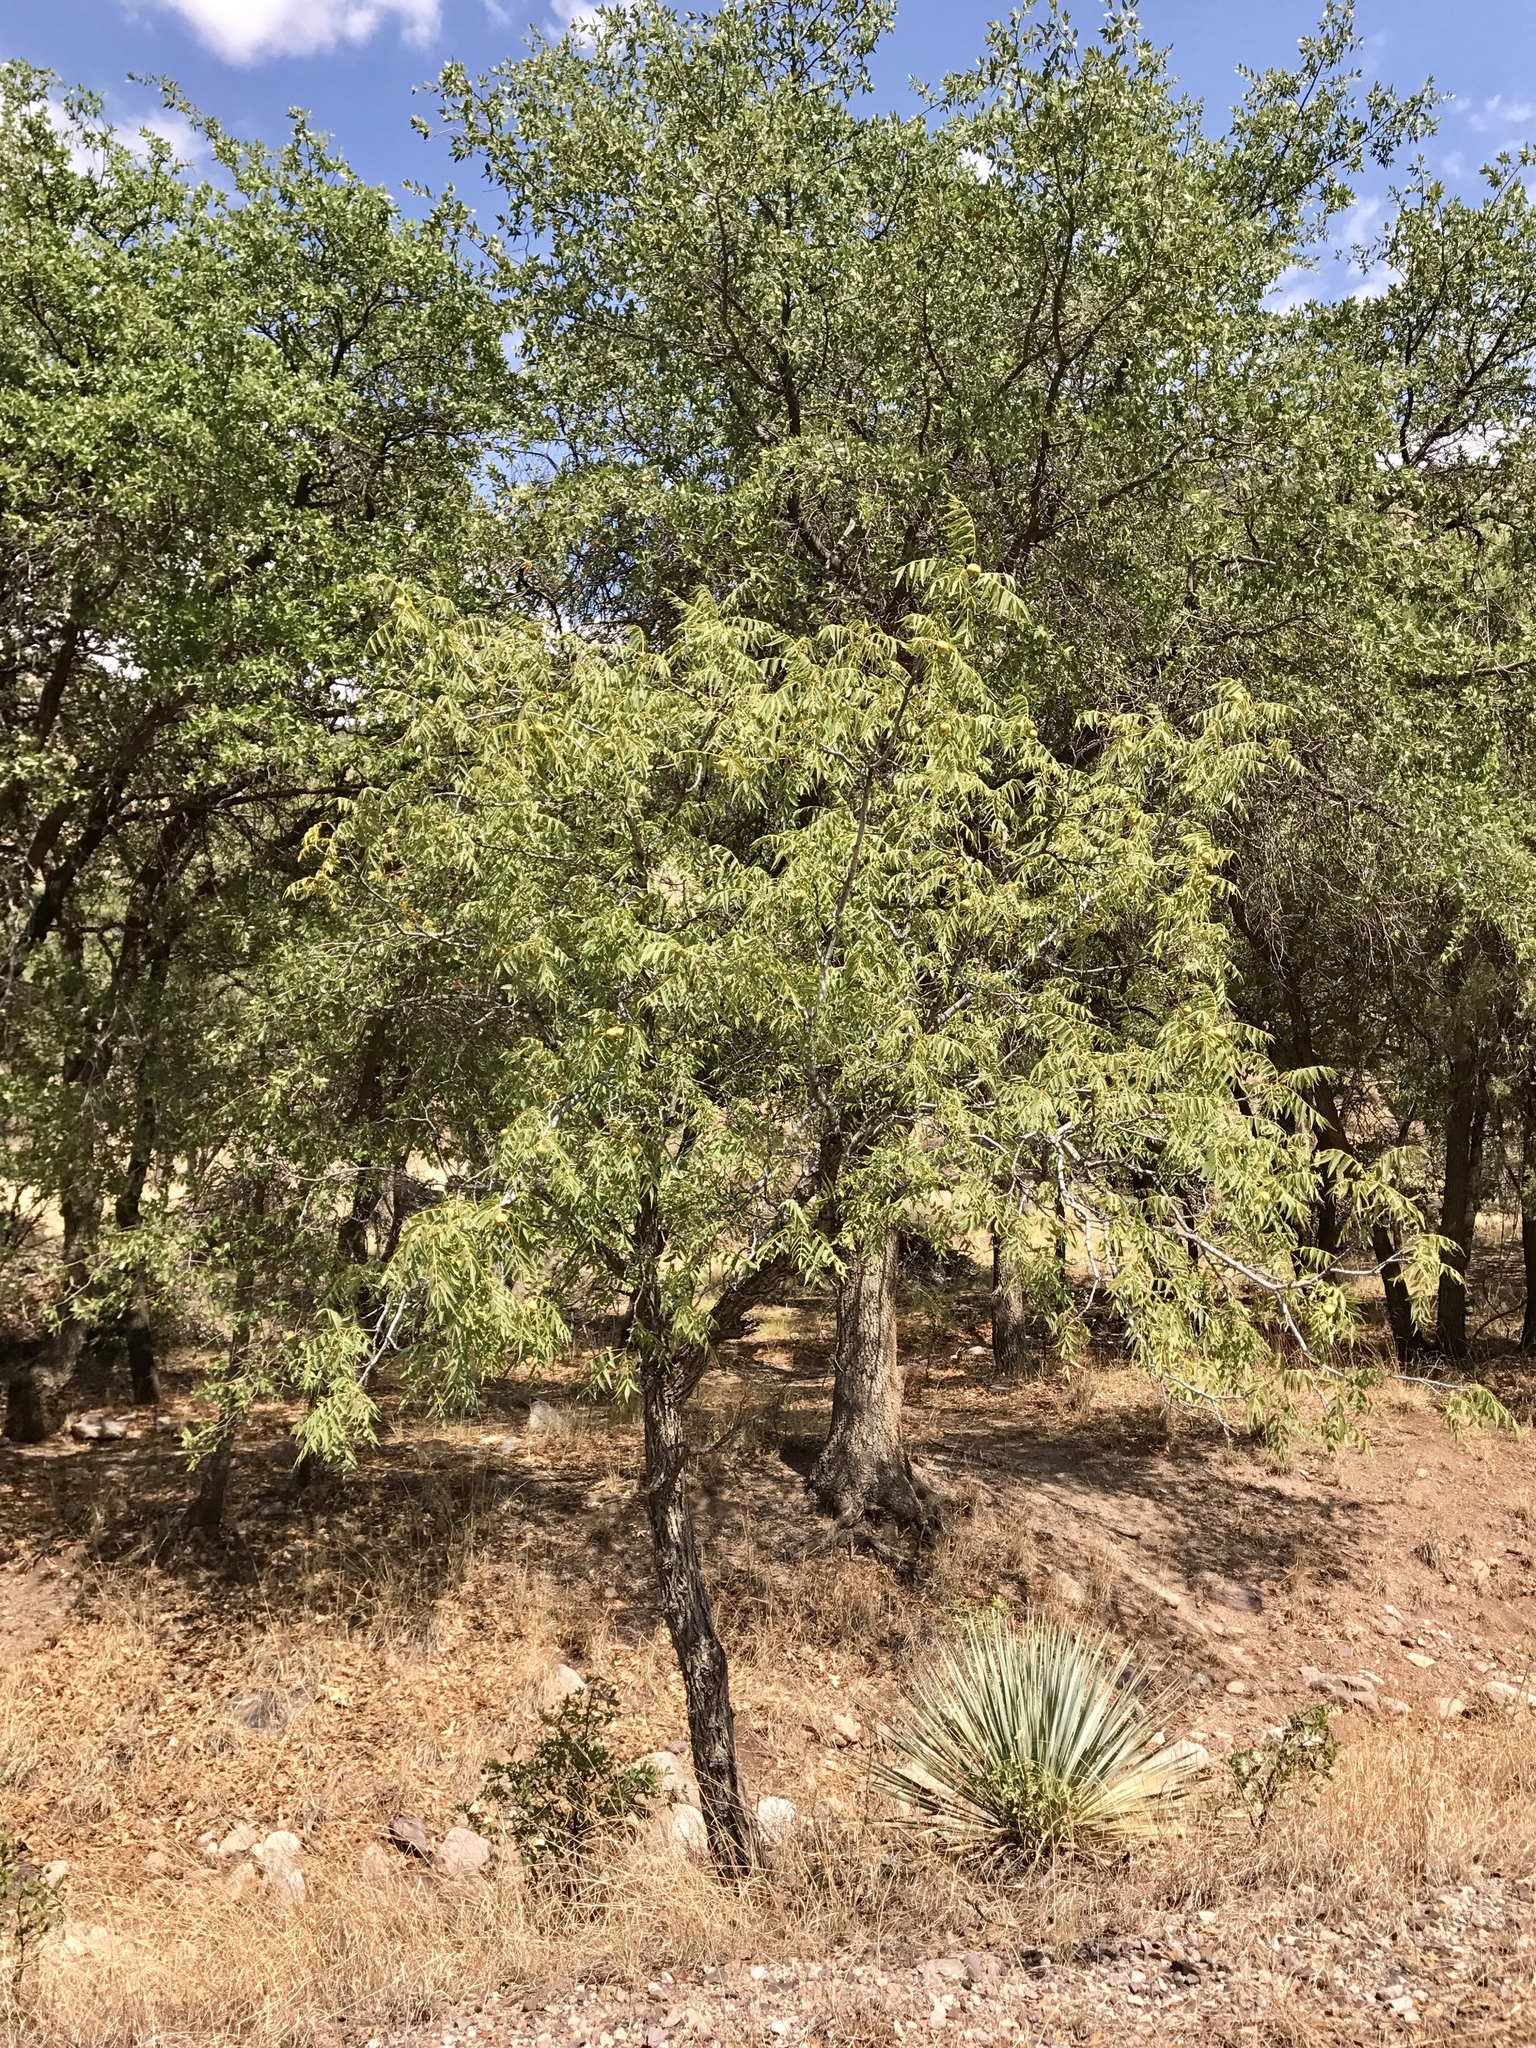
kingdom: Plantae
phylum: Tracheophyta
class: Magnoliopsida
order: Fagales
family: Juglandaceae
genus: Juglans
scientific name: Juglans major
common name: Arizona walnut
